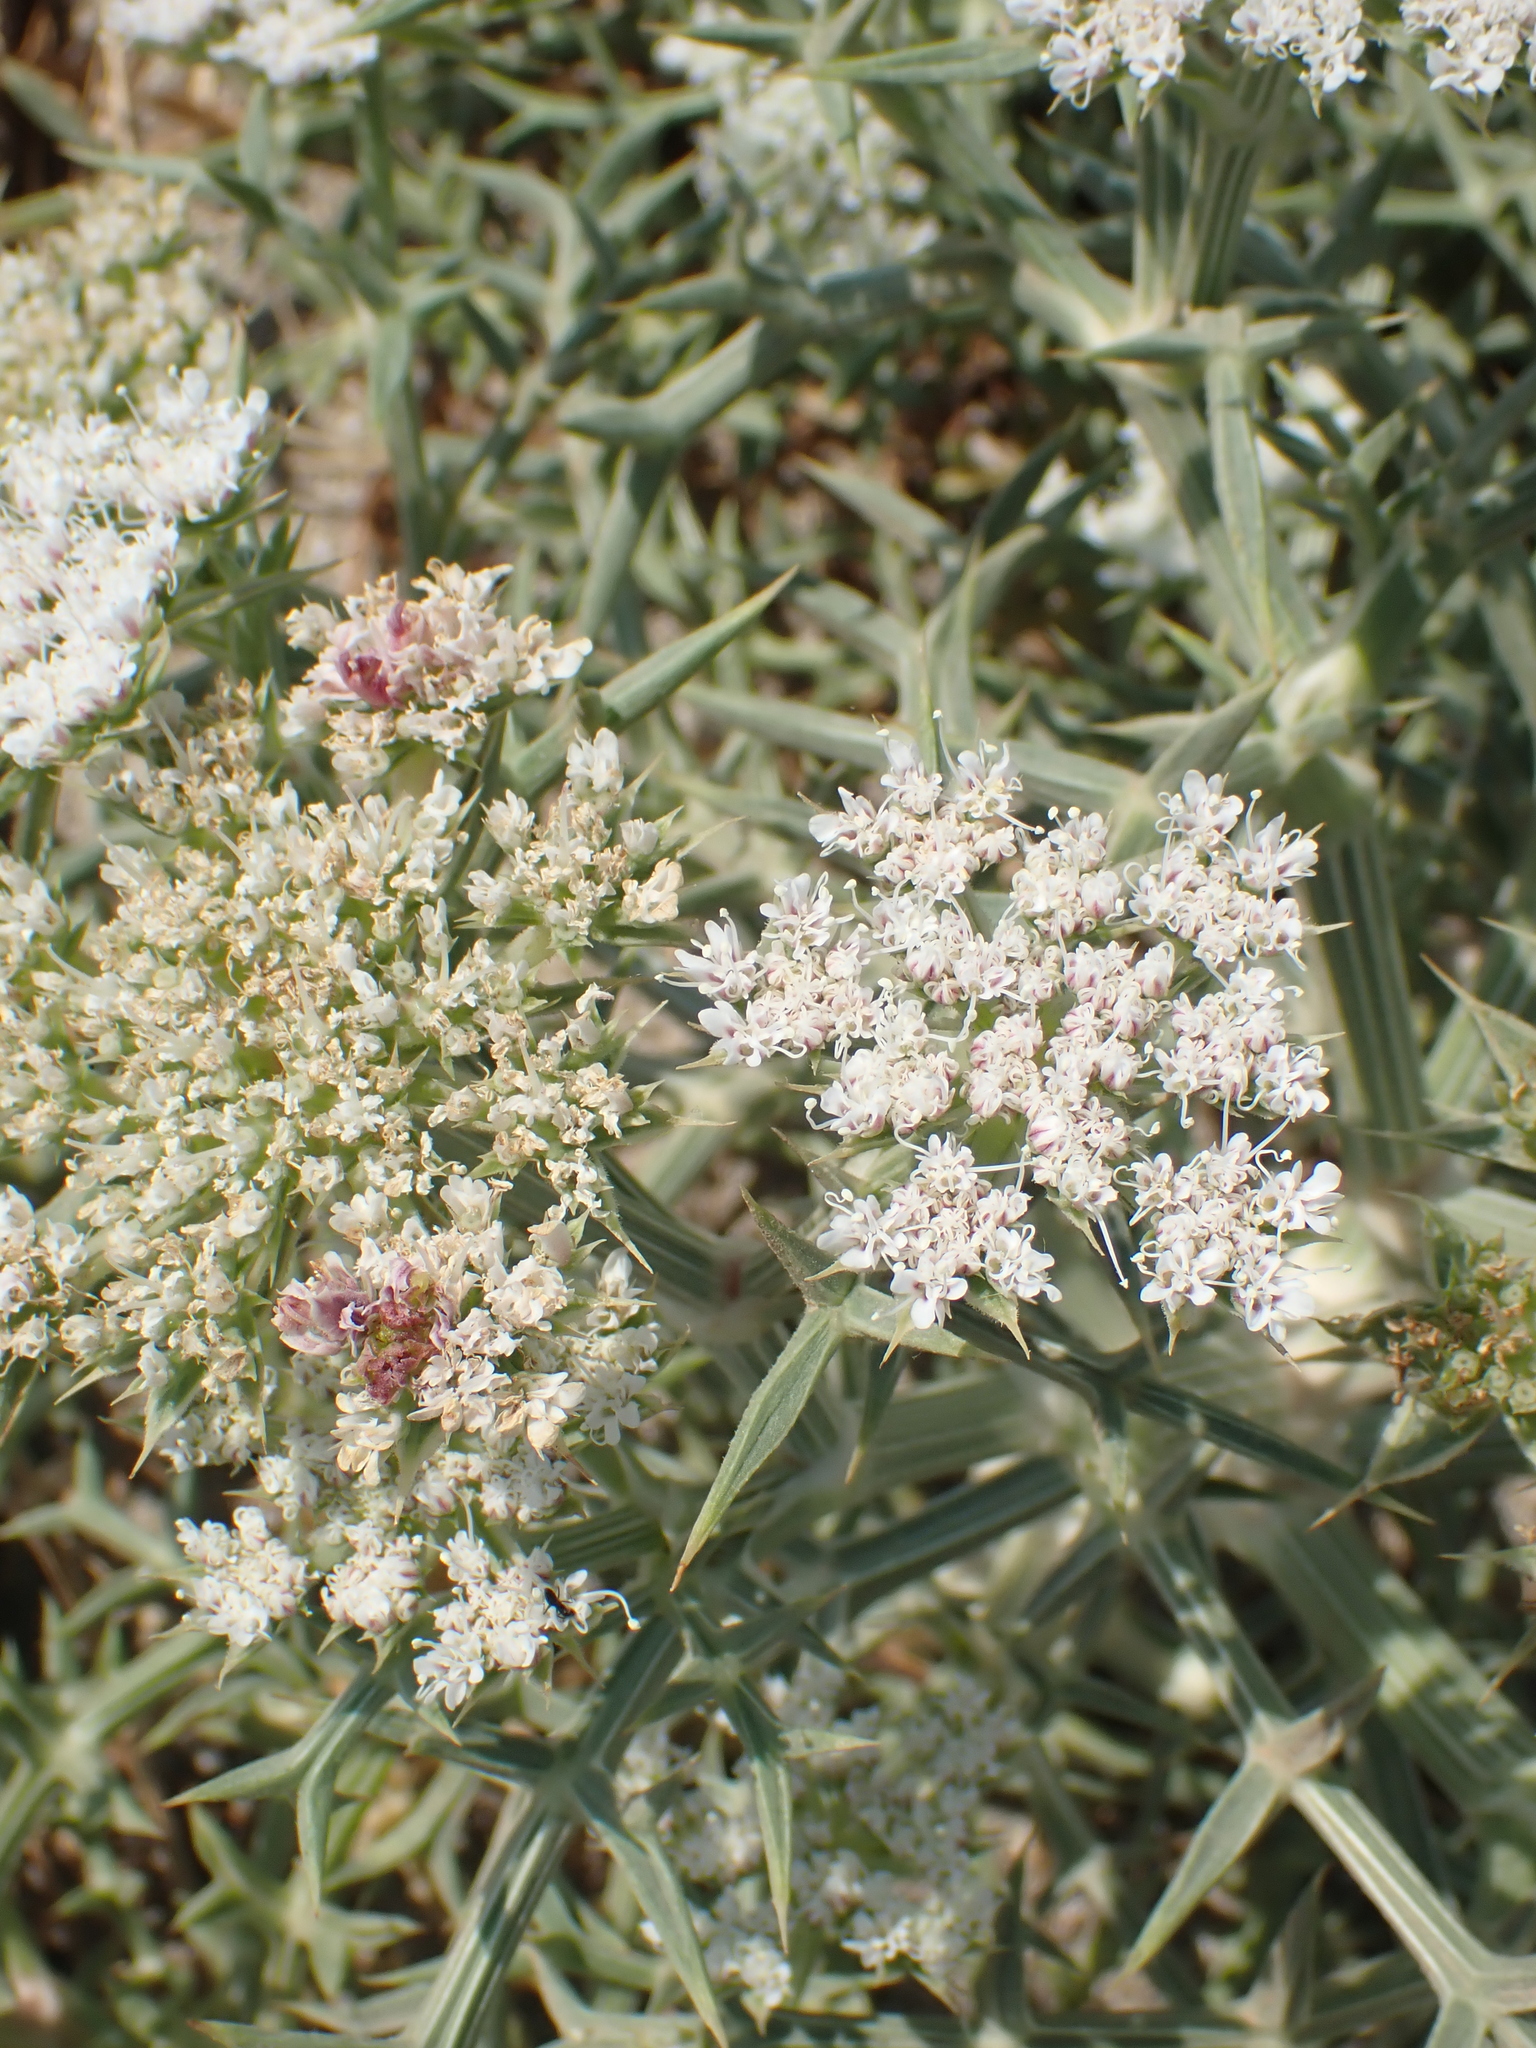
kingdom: Plantae
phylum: Tracheophyta
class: Magnoliopsida
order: Apiales
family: Apiaceae
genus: Echinophora
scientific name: Echinophora spinosa
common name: Prickly samphire
